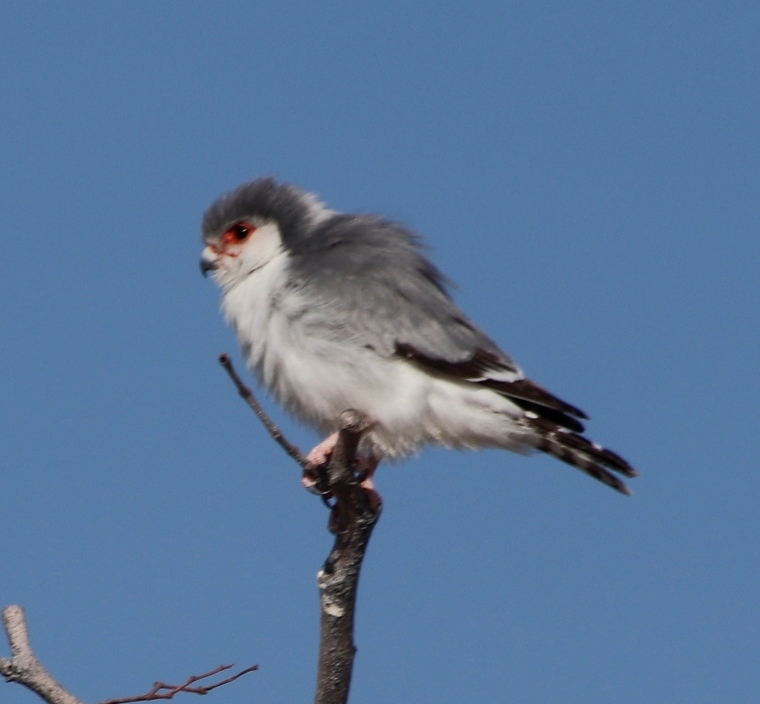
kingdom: Animalia
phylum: Chordata
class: Aves
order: Falconiformes
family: Falconidae
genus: Polihierax
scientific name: Polihierax semitorquatus
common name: Pygmy falcon
